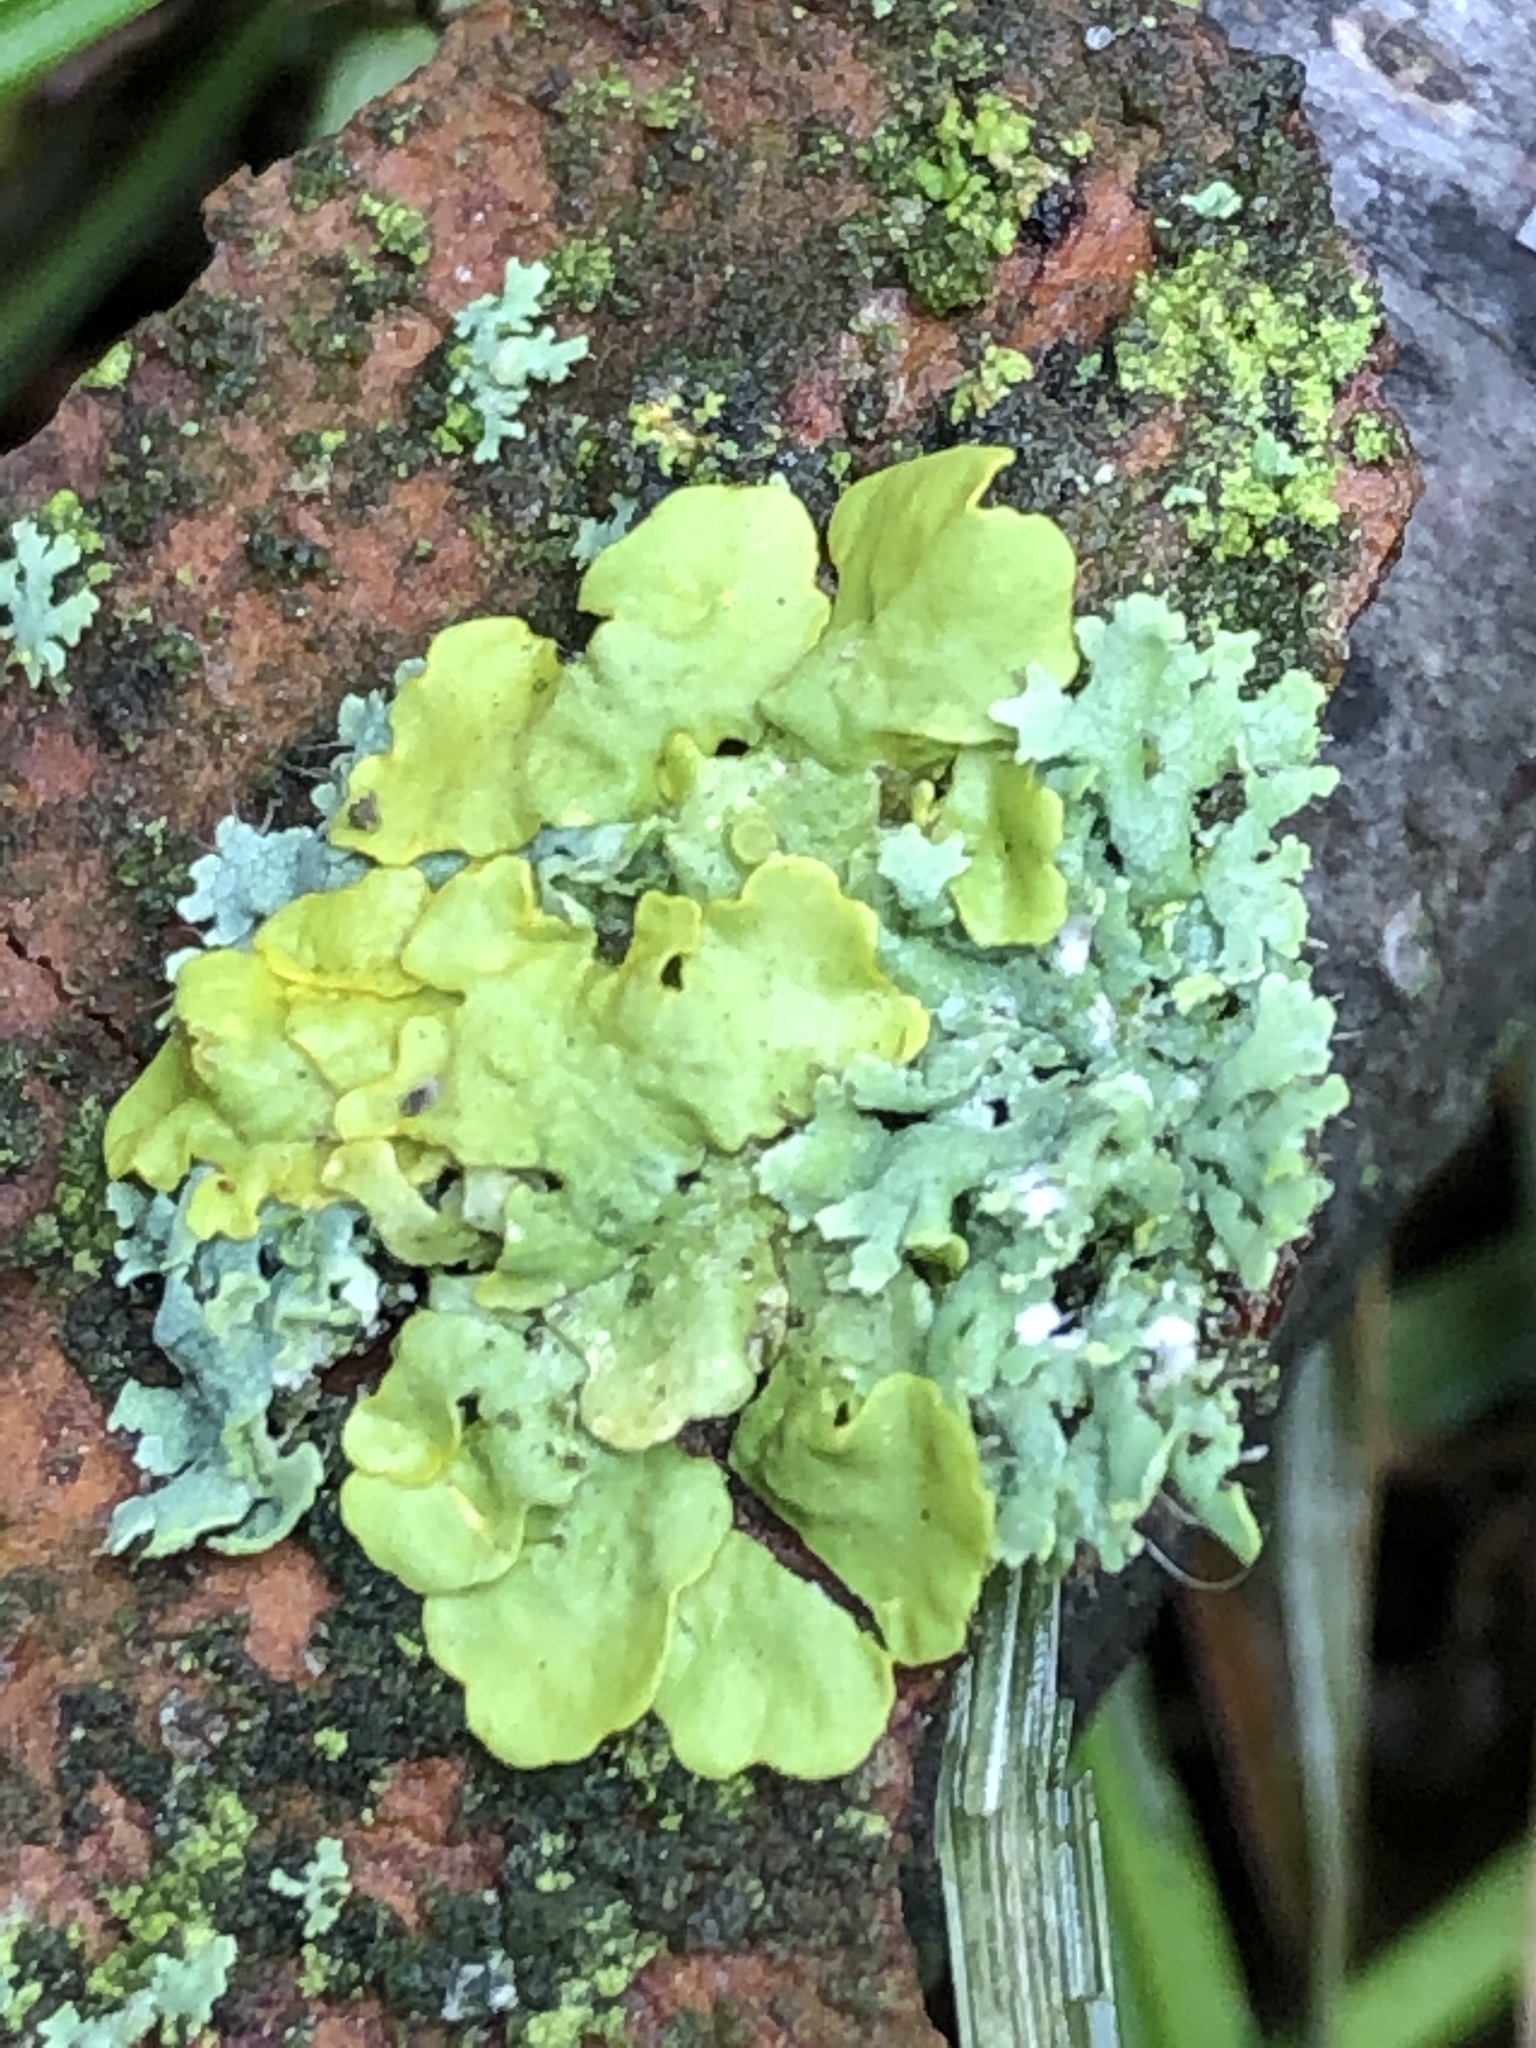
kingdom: Fungi
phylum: Ascomycota
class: Lecanoromycetes
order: Caliciales
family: Physciaceae
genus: Physcia
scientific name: Physcia adscendens
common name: Hooded rosette lichen
